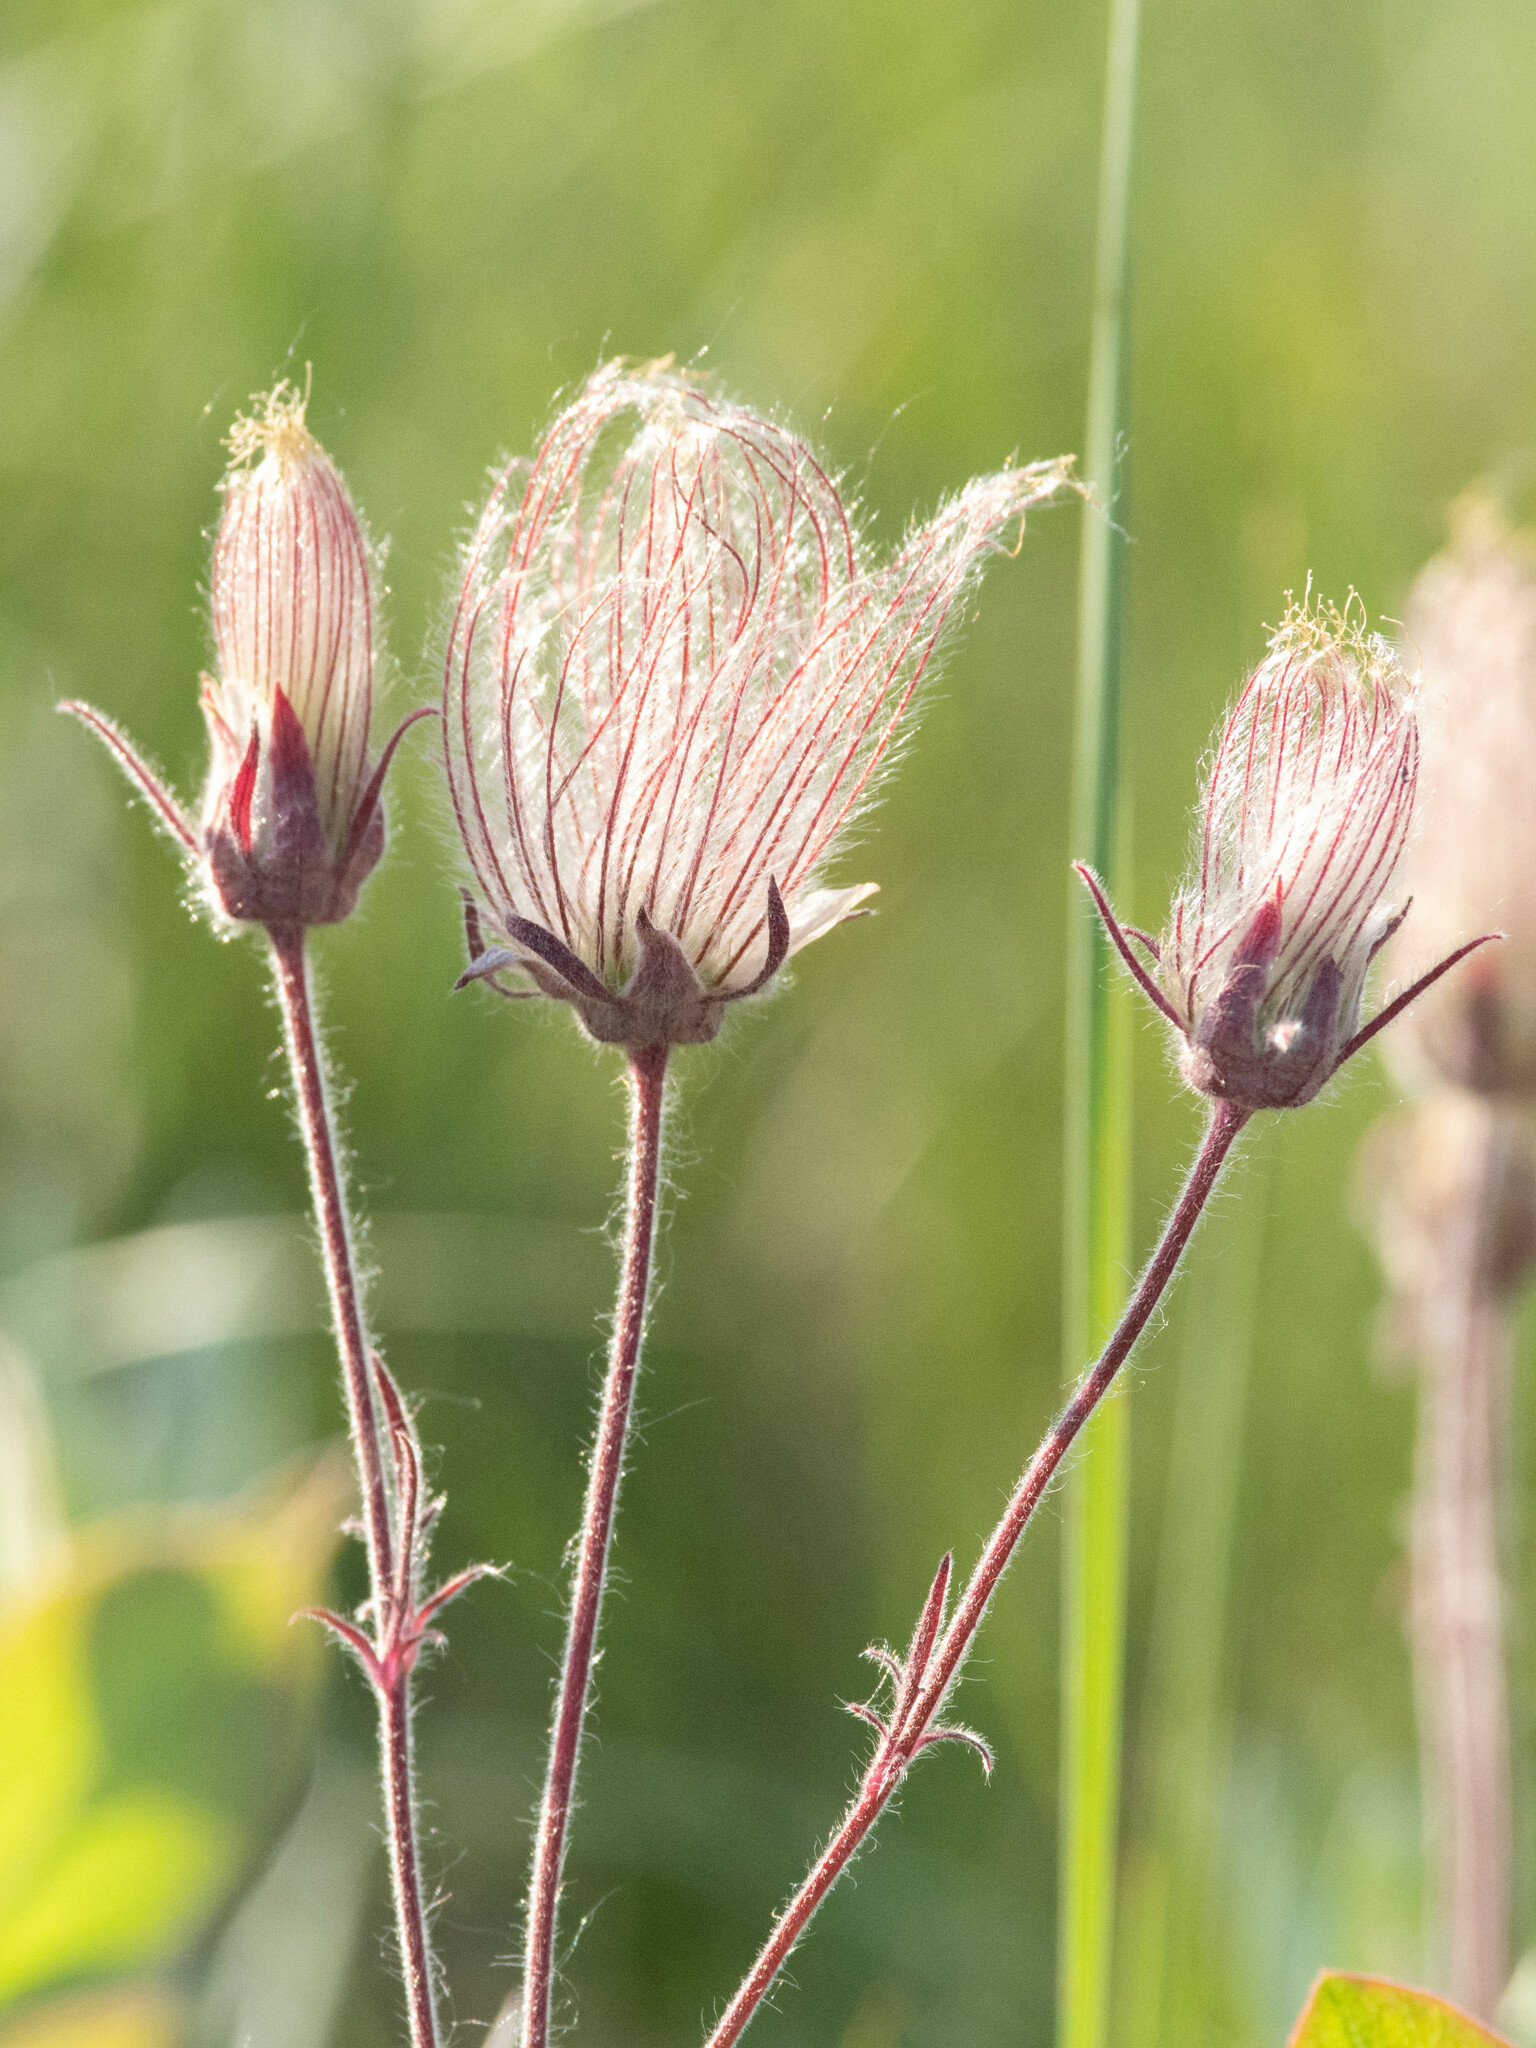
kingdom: Plantae
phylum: Tracheophyta
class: Magnoliopsida
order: Rosales
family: Rosaceae
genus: Geum
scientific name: Geum triflorum
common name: Old man's whiskers
